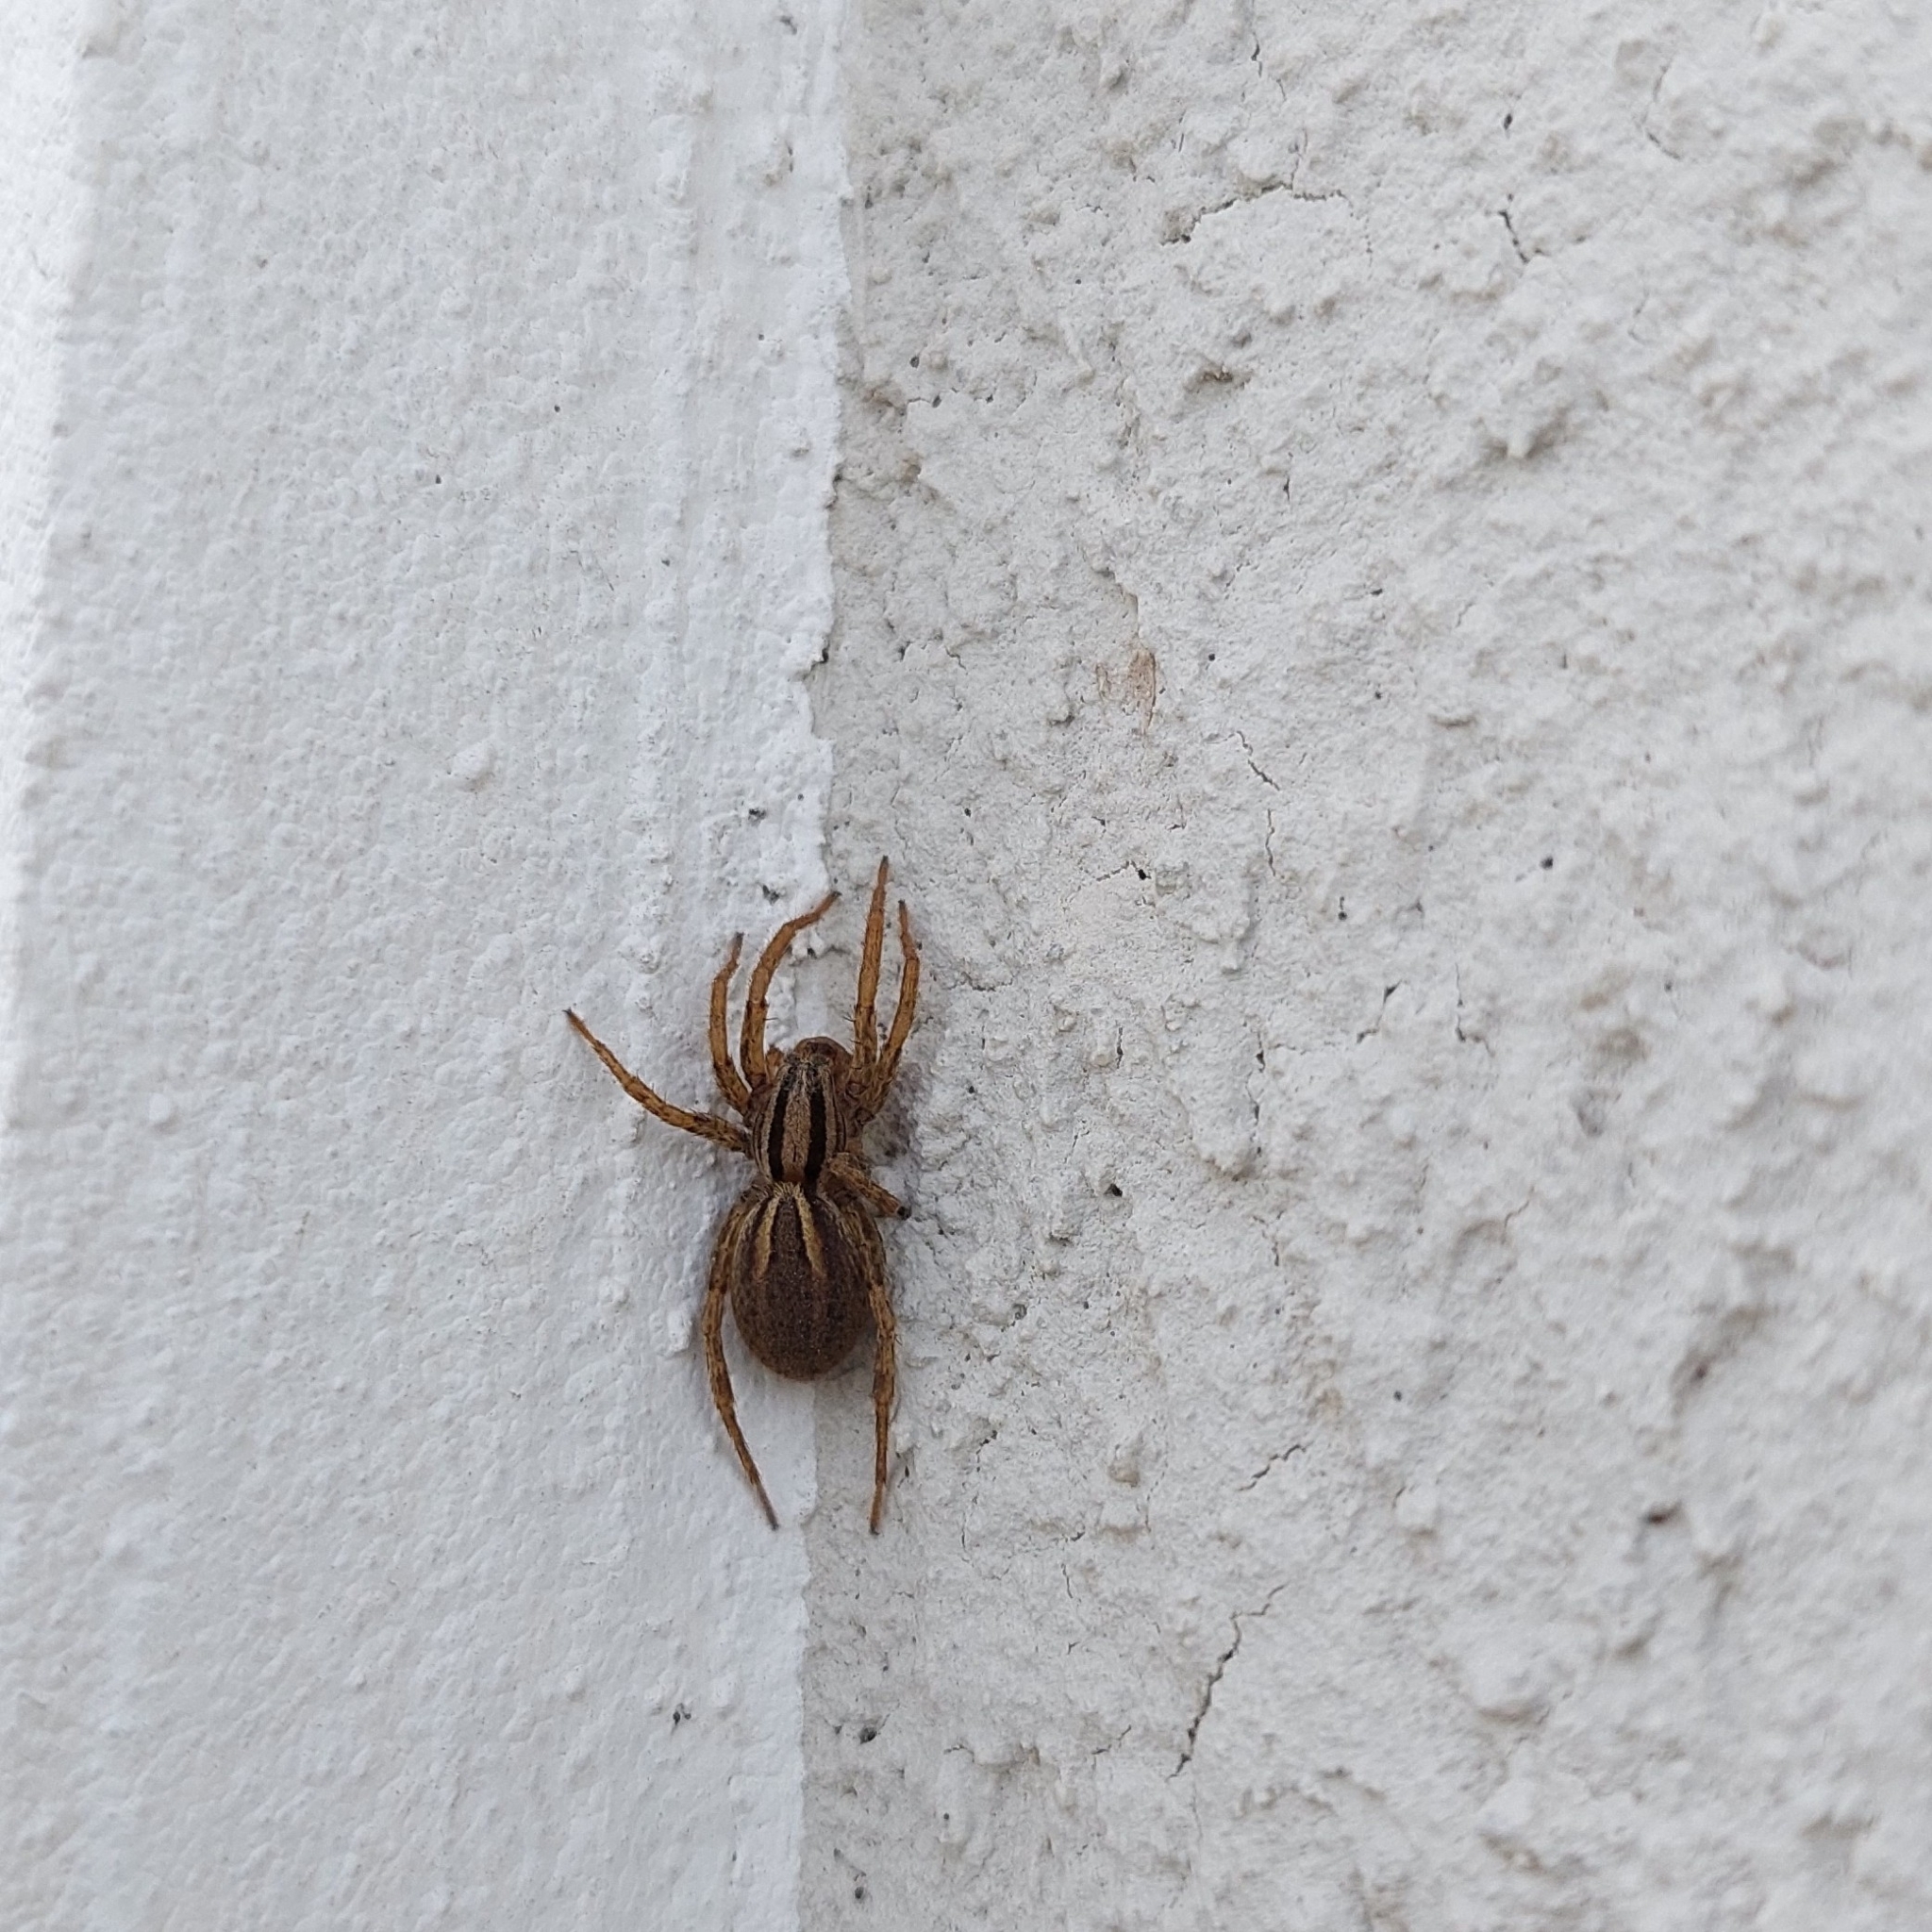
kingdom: Animalia
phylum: Arthropoda
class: Arachnida
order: Araneae
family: Lycosidae
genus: Hogna
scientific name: Hogna bivittata
